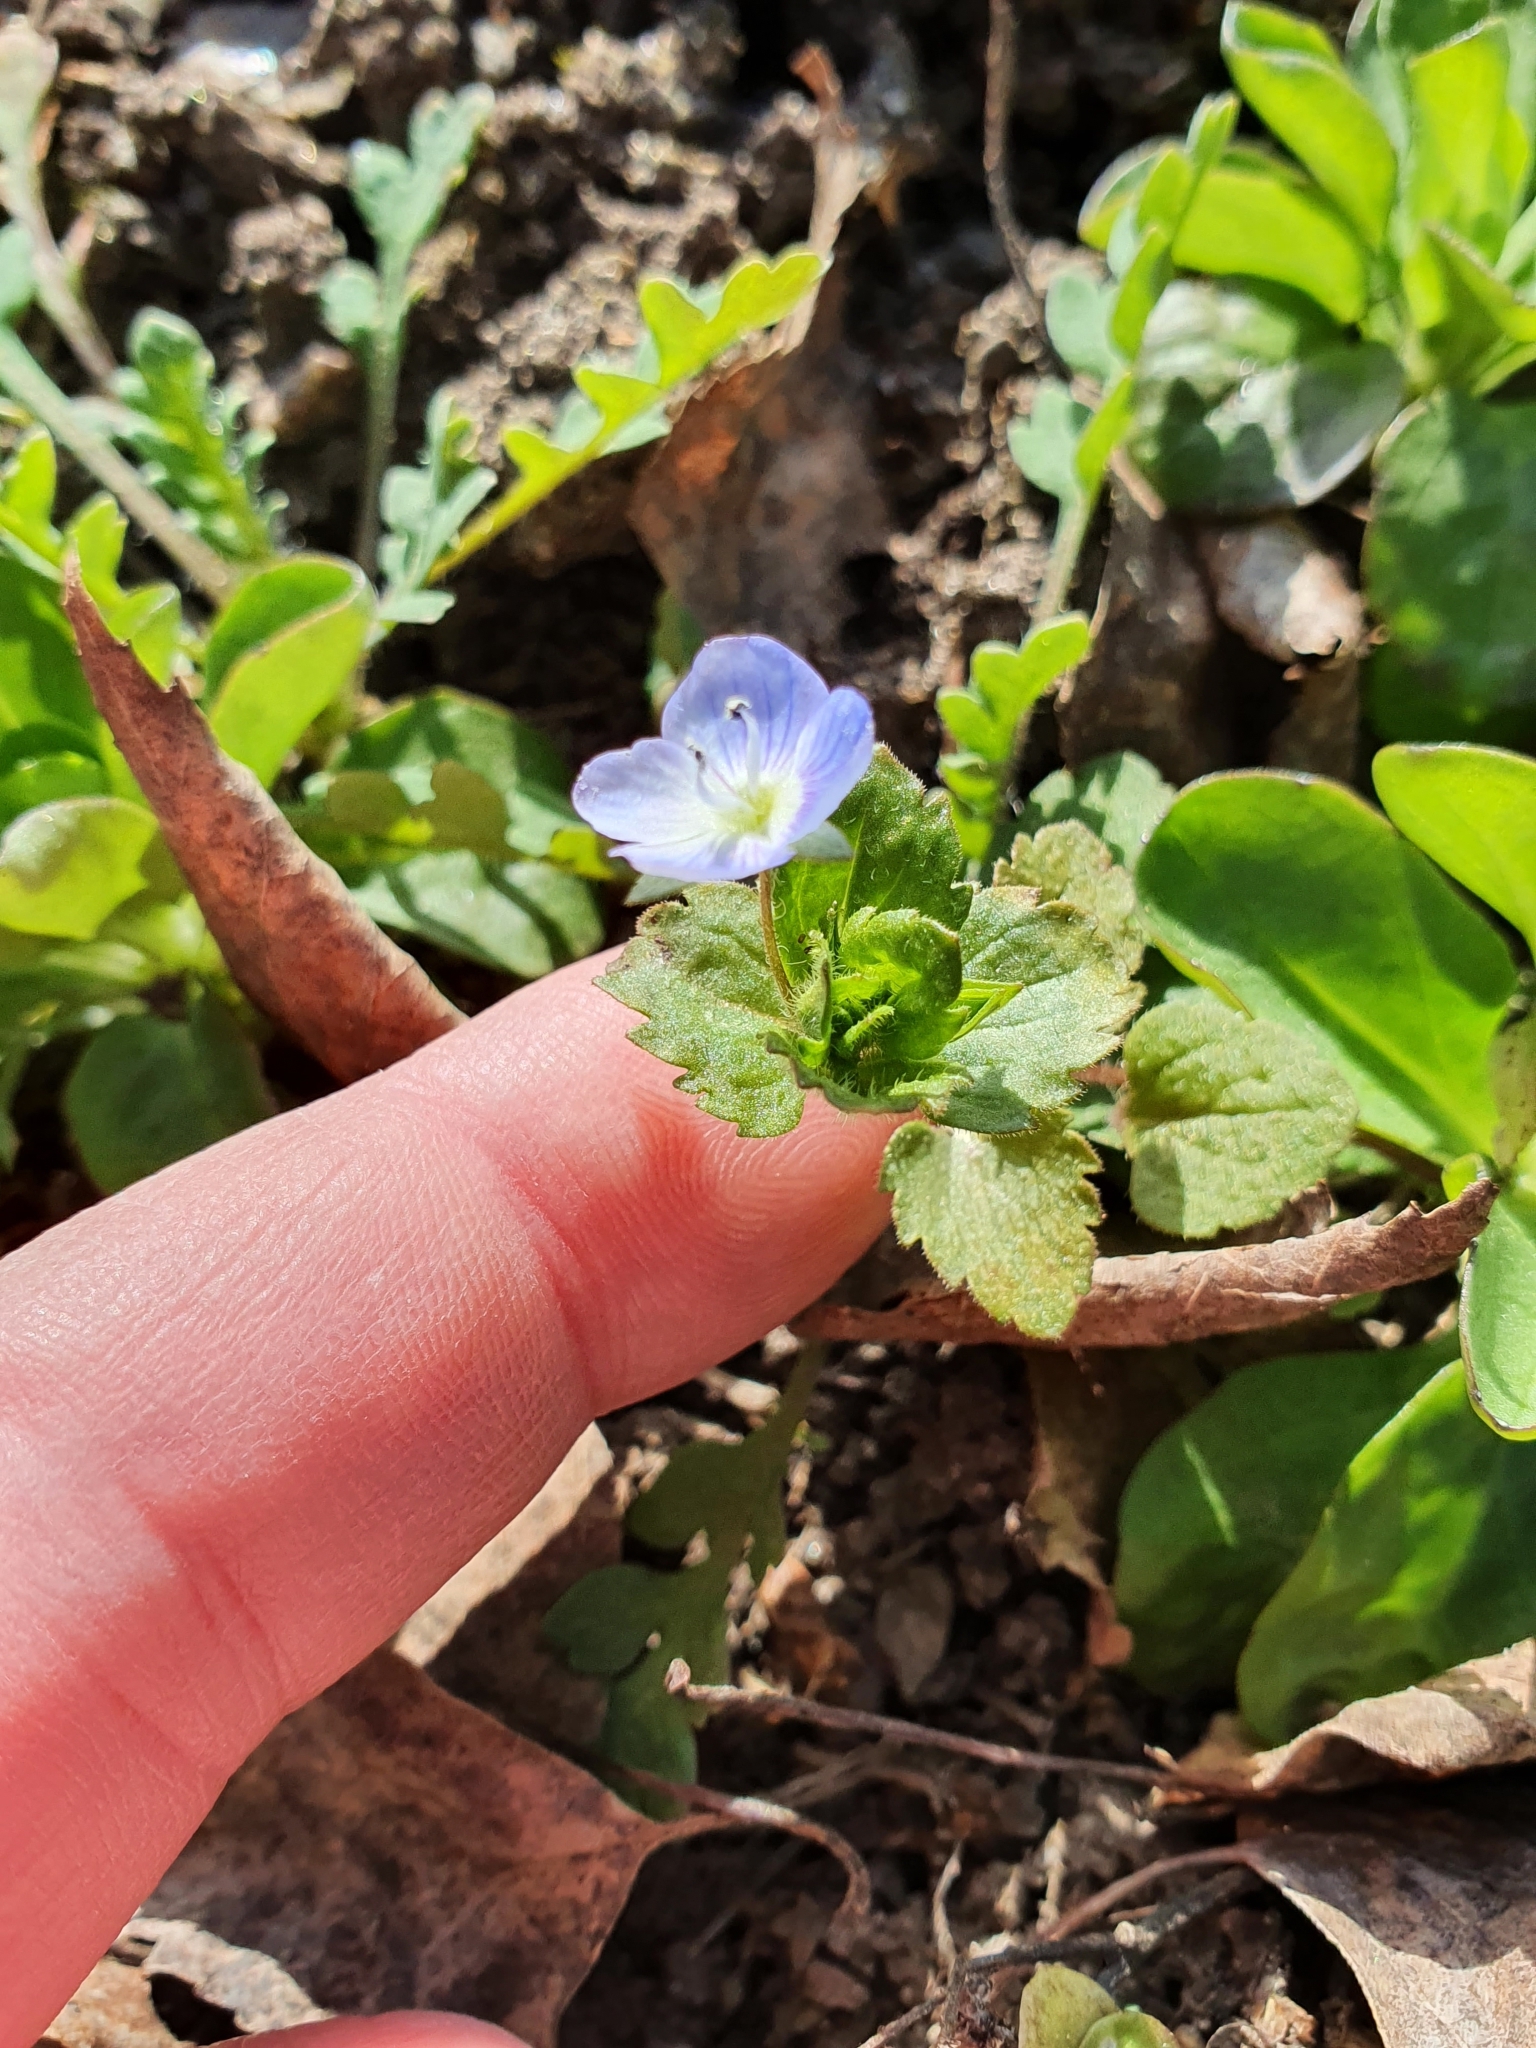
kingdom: Plantae
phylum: Tracheophyta
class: Magnoliopsida
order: Lamiales
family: Plantaginaceae
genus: Veronica
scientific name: Veronica persica
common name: Common field-speedwell
